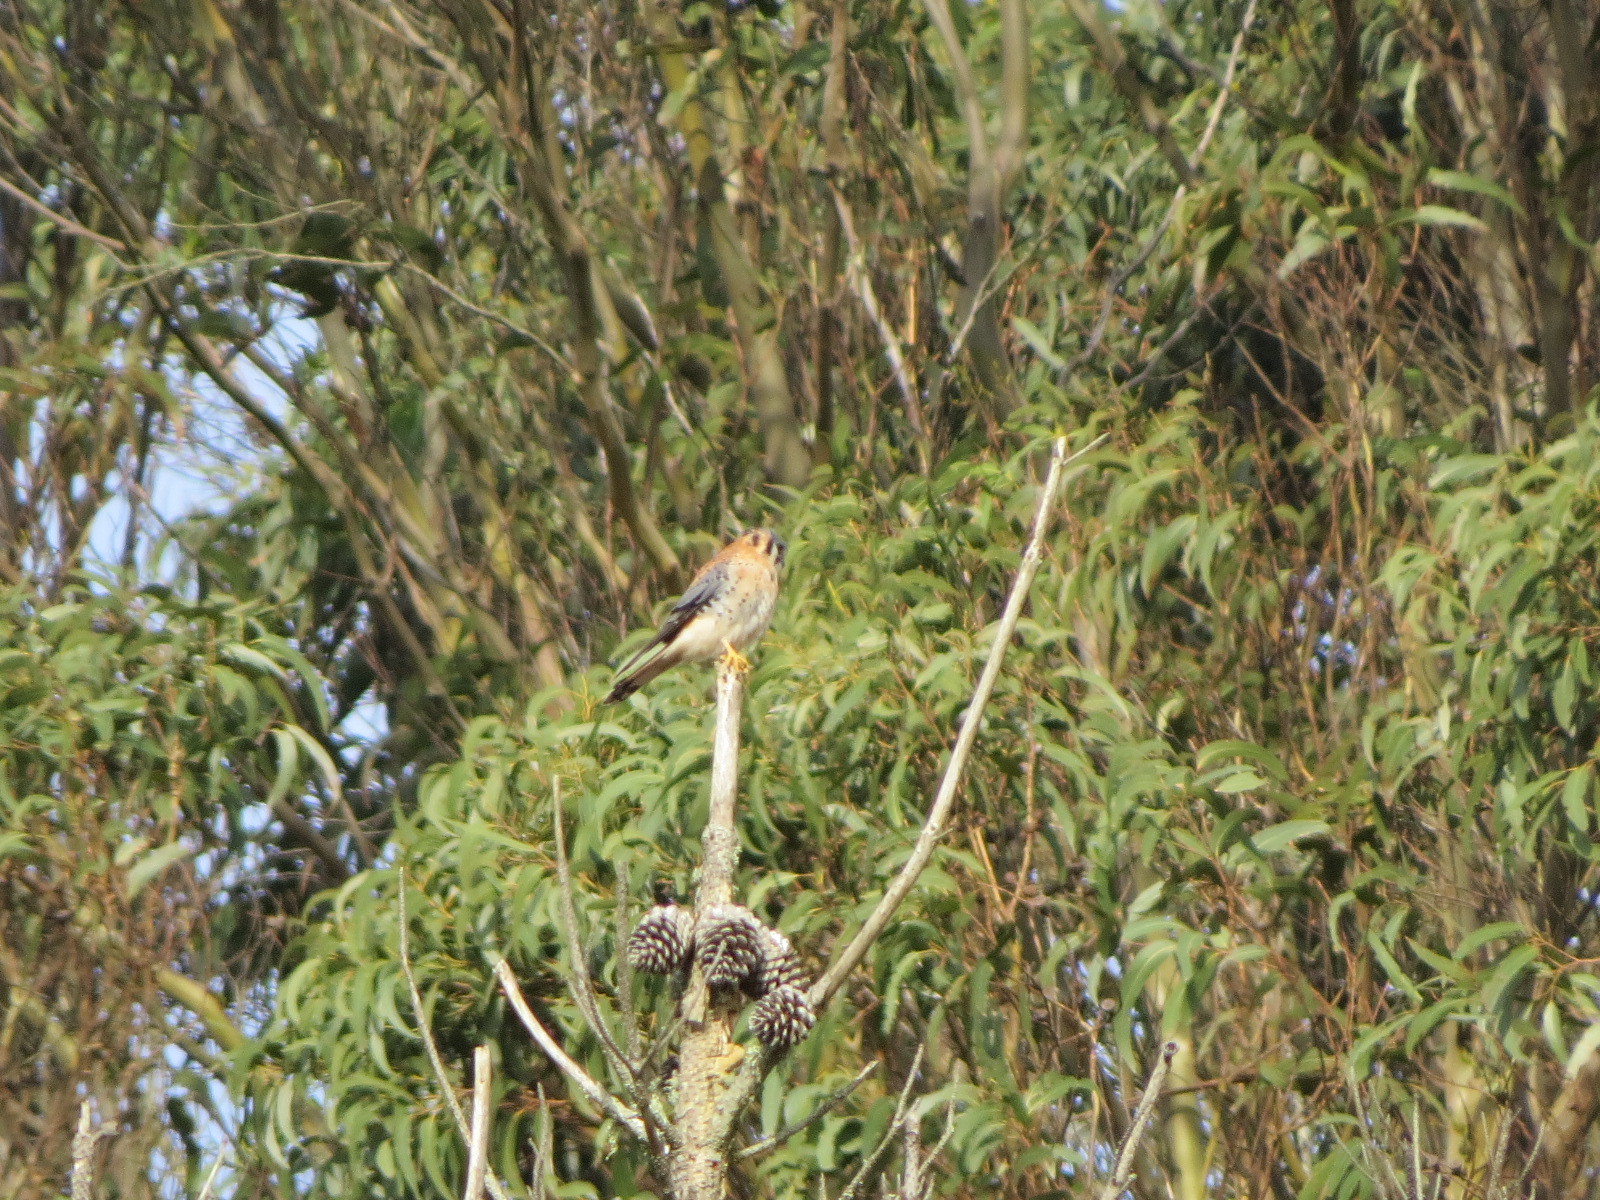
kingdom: Animalia
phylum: Chordata
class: Aves
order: Falconiformes
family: Falconidae
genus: Falco
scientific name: Falco sparverius
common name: American kestrel
